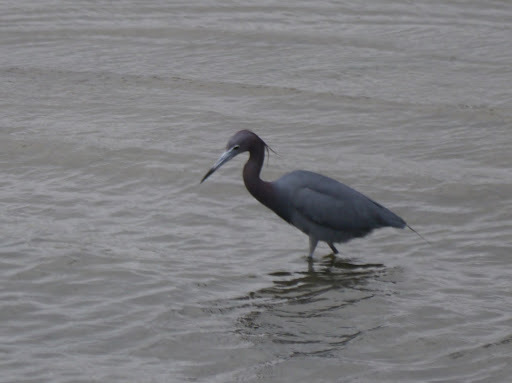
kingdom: Animalia
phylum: Chordata
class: Aves
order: Pelecaniformes
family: Ardeidae
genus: Egretta
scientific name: Egretta caerulea
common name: Little blue heron
